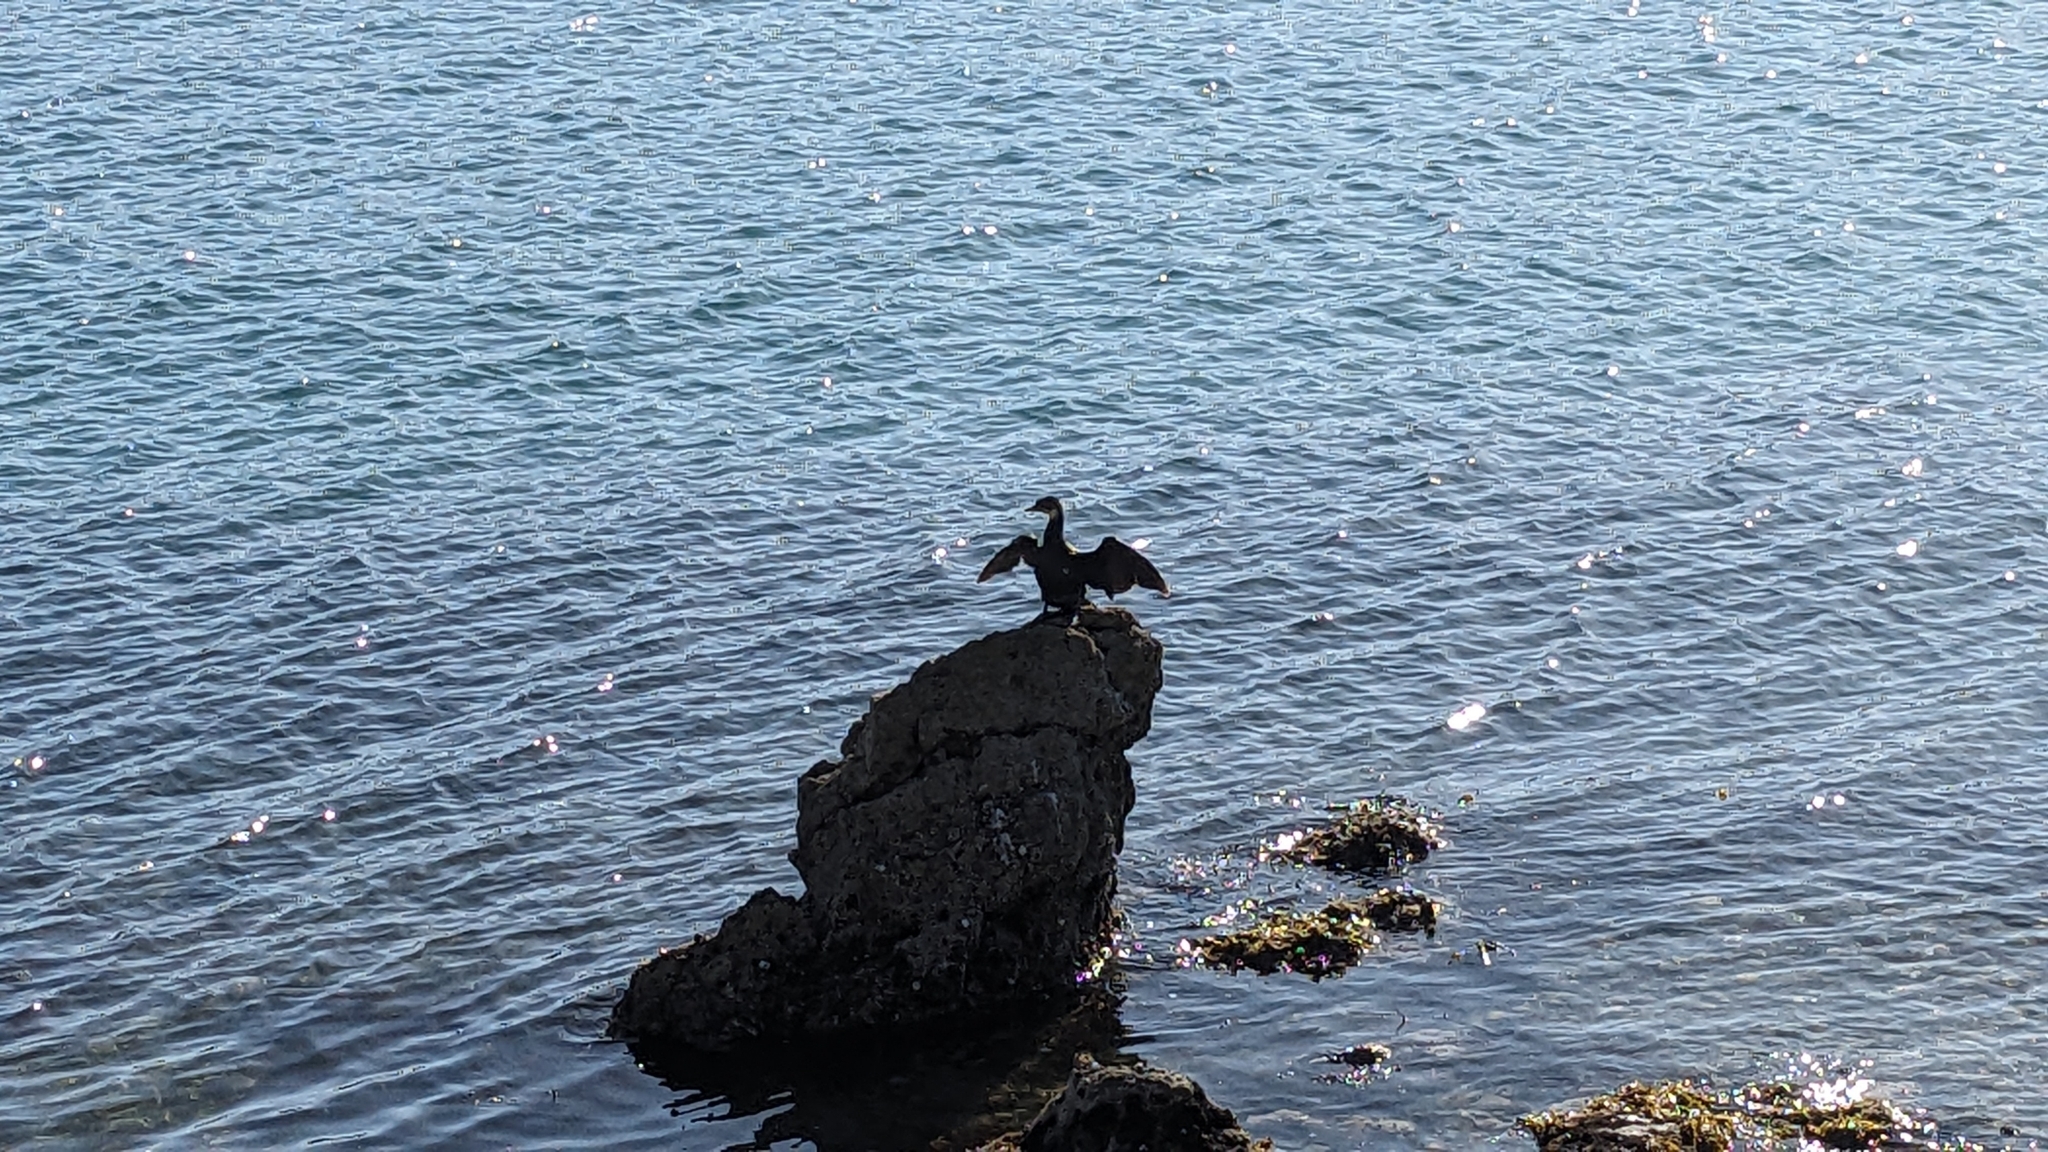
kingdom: Animalia
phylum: Chordata
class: Aves
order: Suliformes
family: Phalacrocoracidae
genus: Microcarbo
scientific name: Microcarbo melanoleucos
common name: Little pied cormorant
